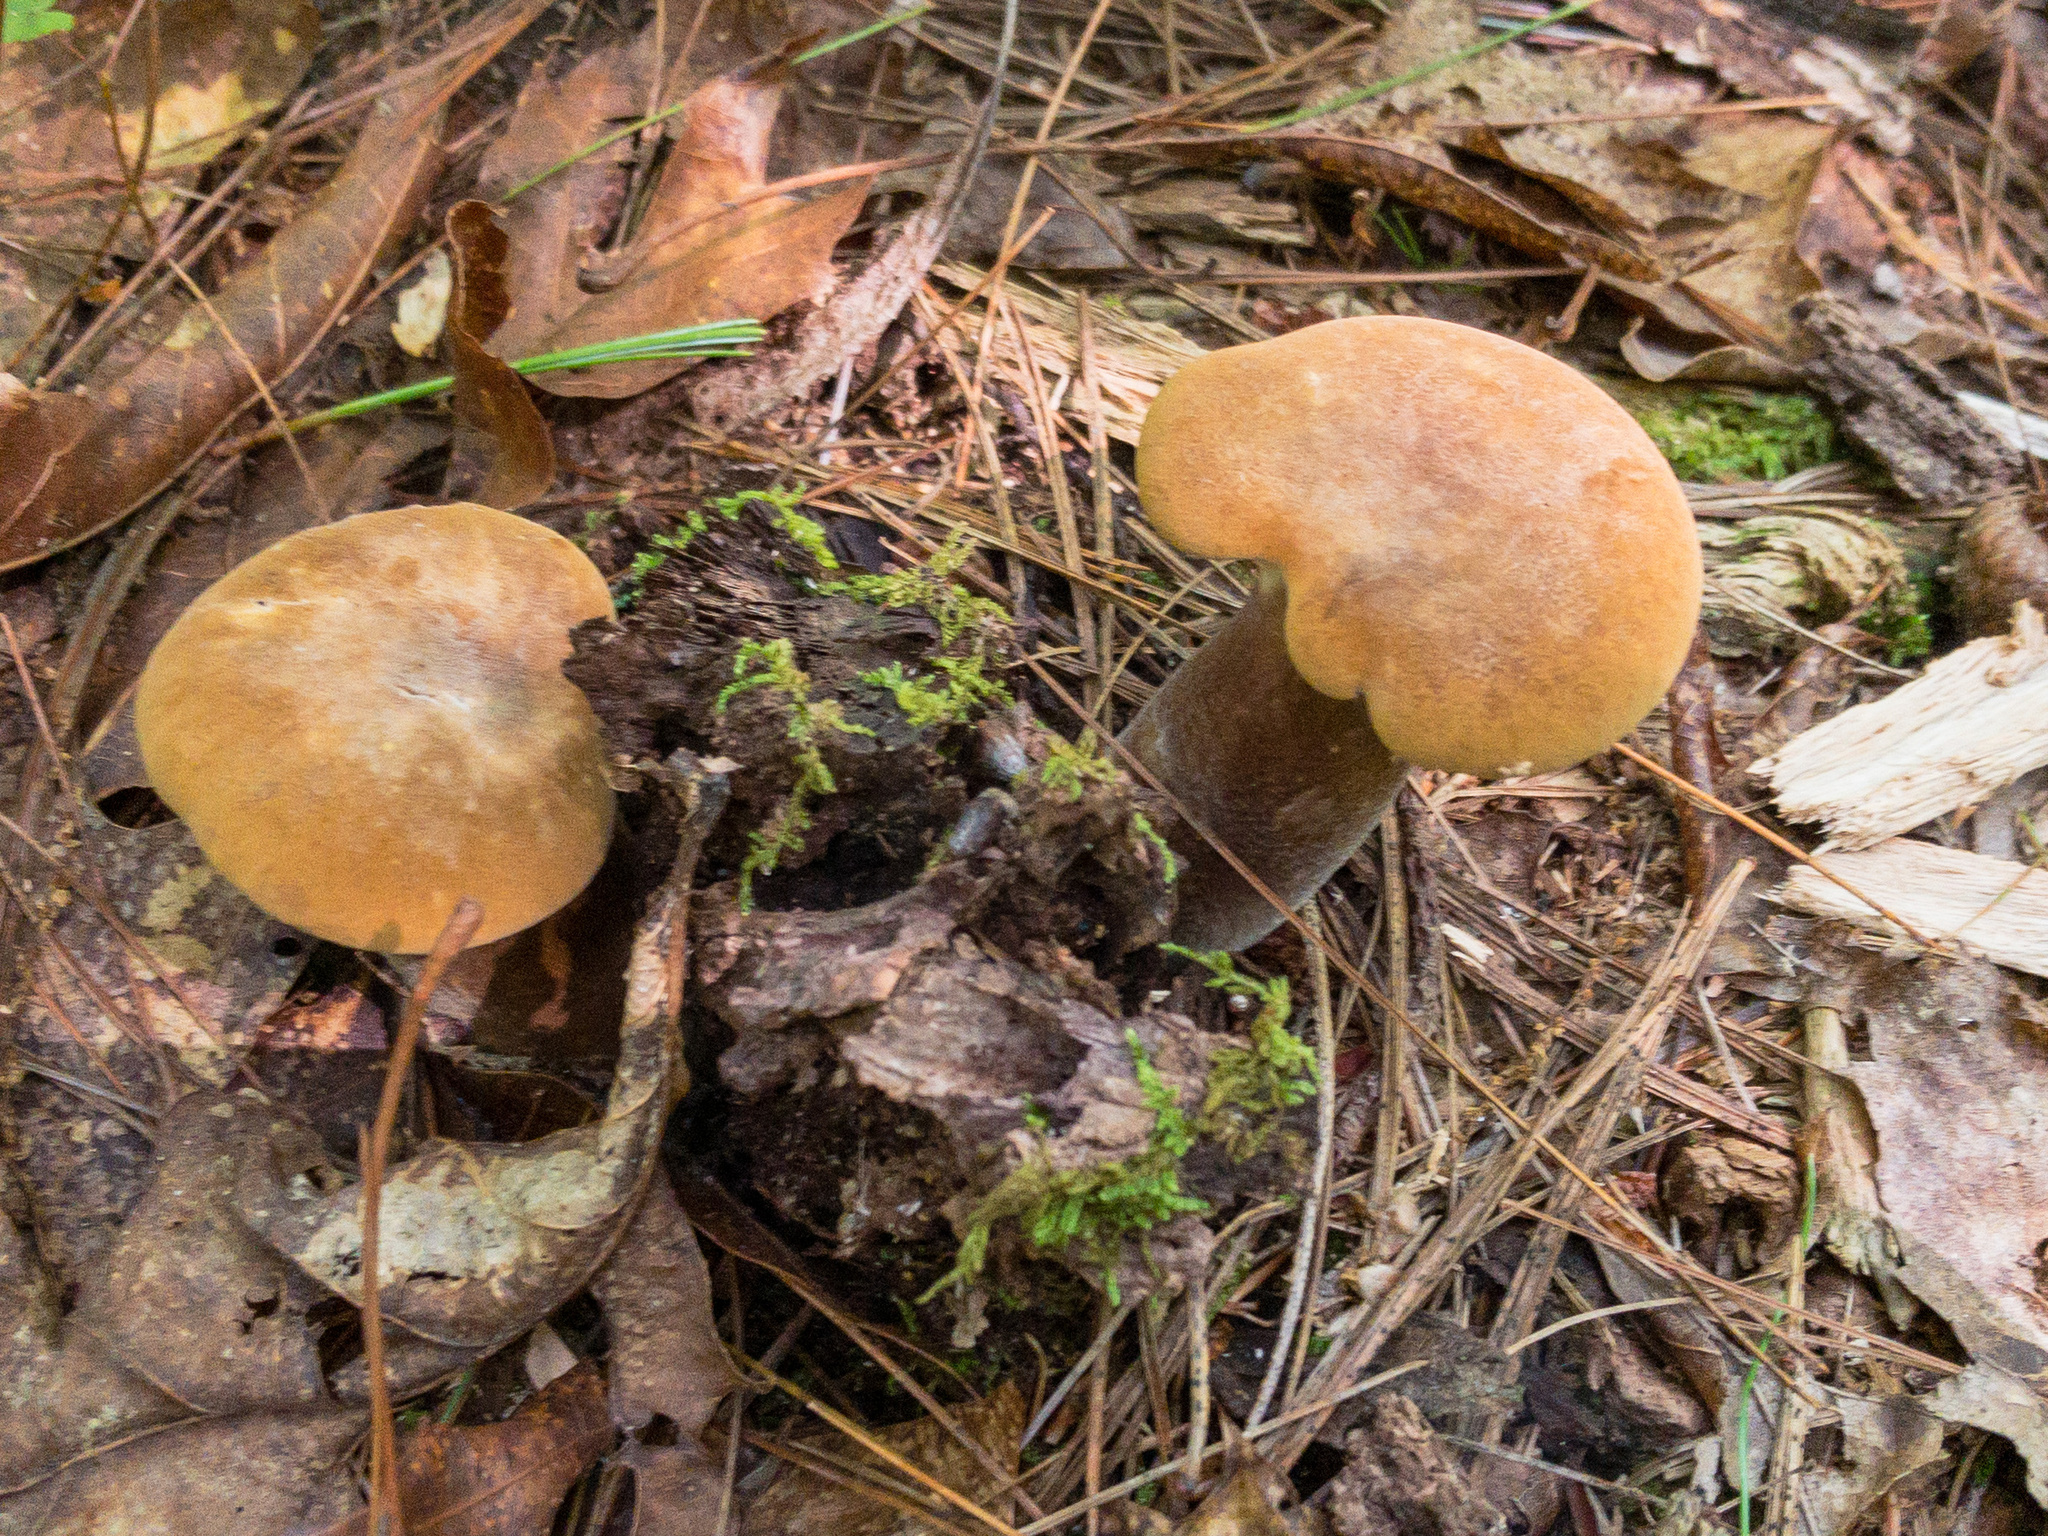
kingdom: Fungi
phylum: Basidiomycota
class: Agaricomycetes
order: Boletales
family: Tapinellaceae
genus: Tapinella
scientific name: Tapinella atrotomentosa
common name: Velvet rollrim
